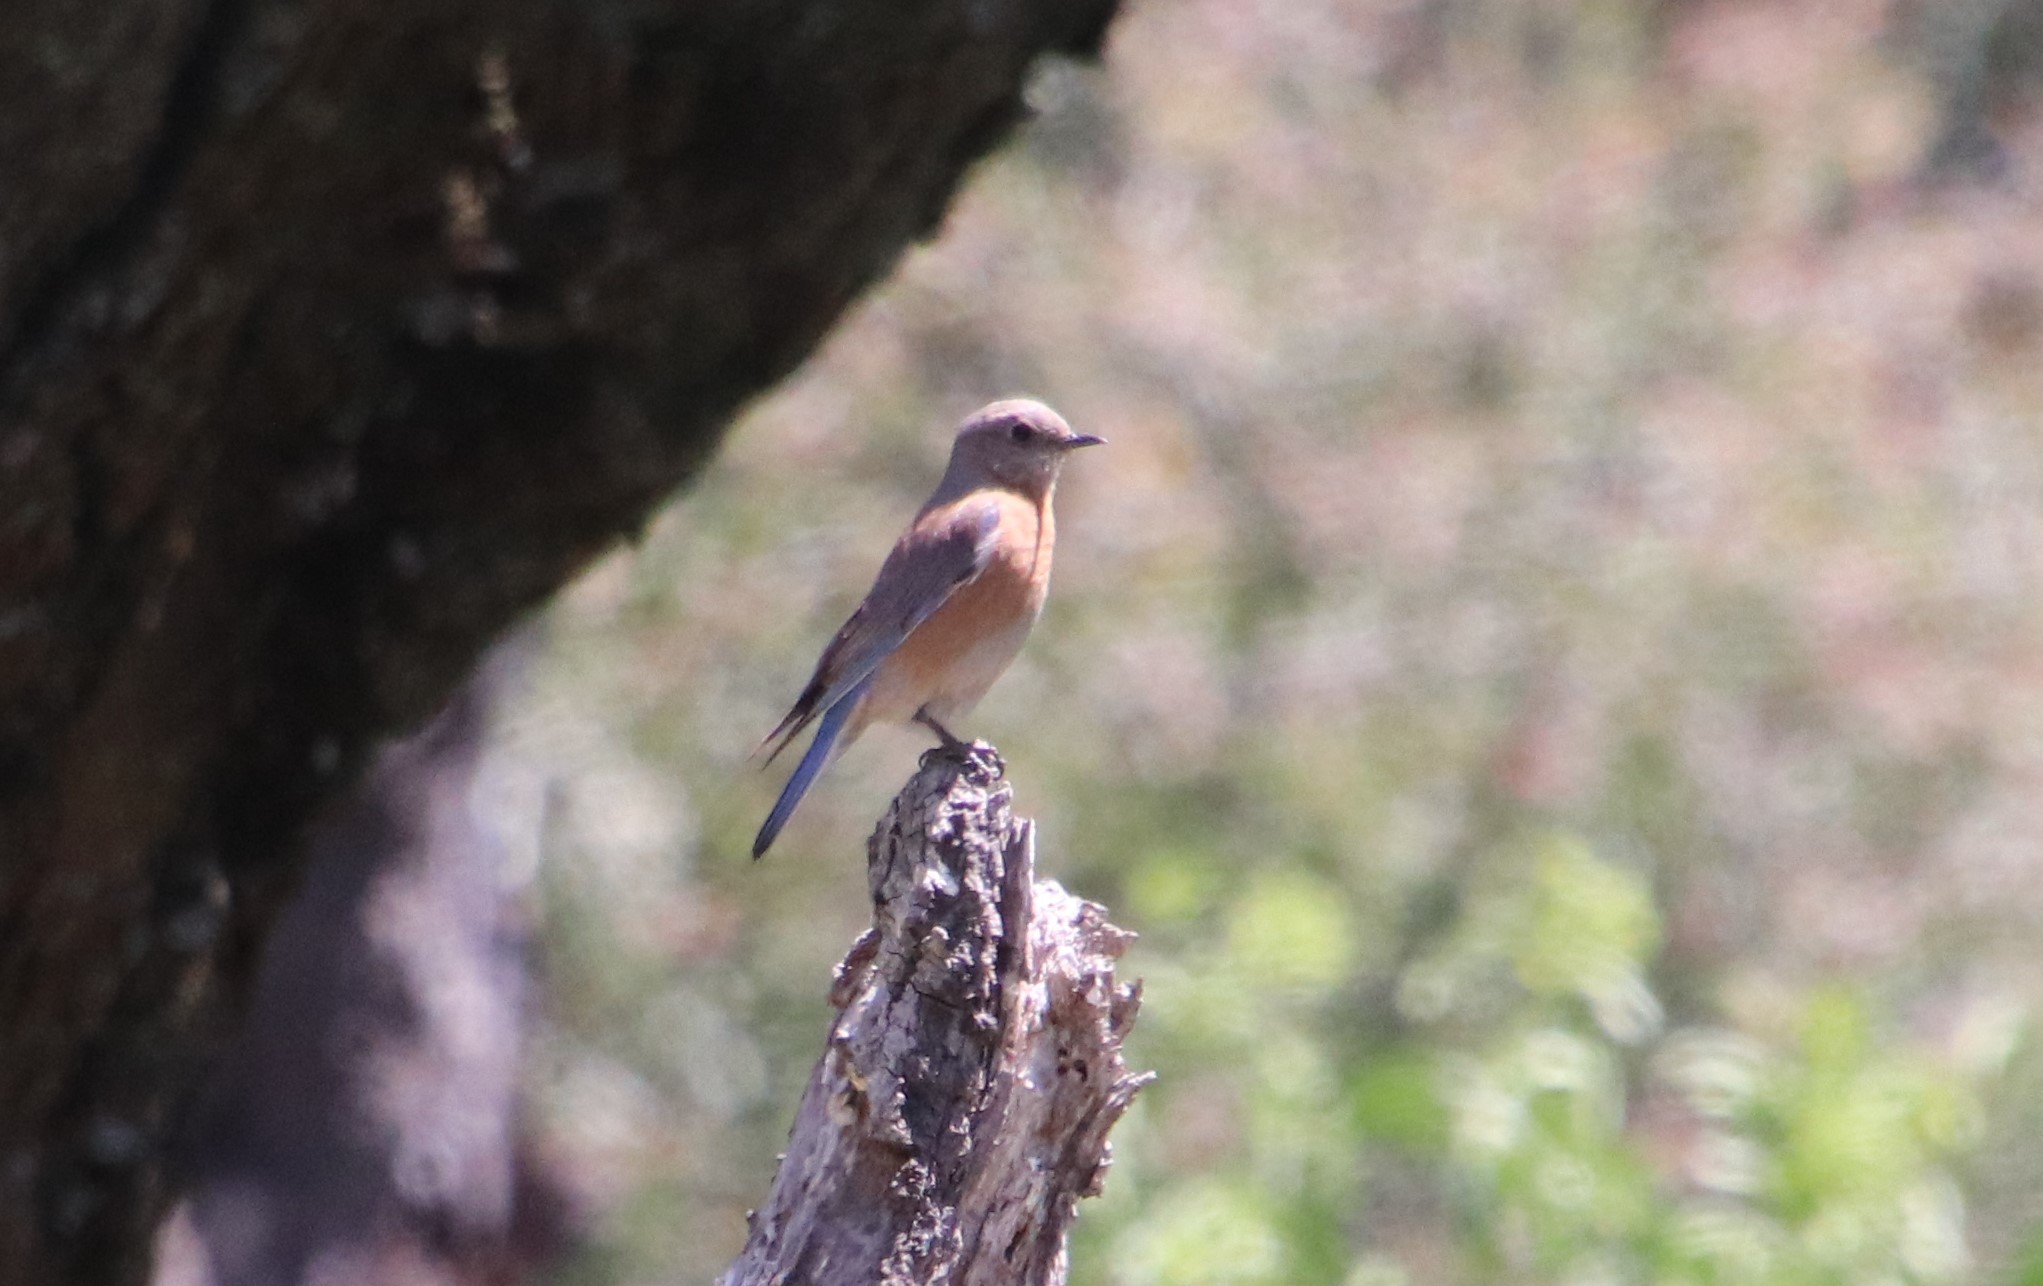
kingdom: Animalia
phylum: Chordata
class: Aves
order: Passeriformes
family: Turdidae
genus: Sialia
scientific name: Sialia mexicana
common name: Western bluebird
